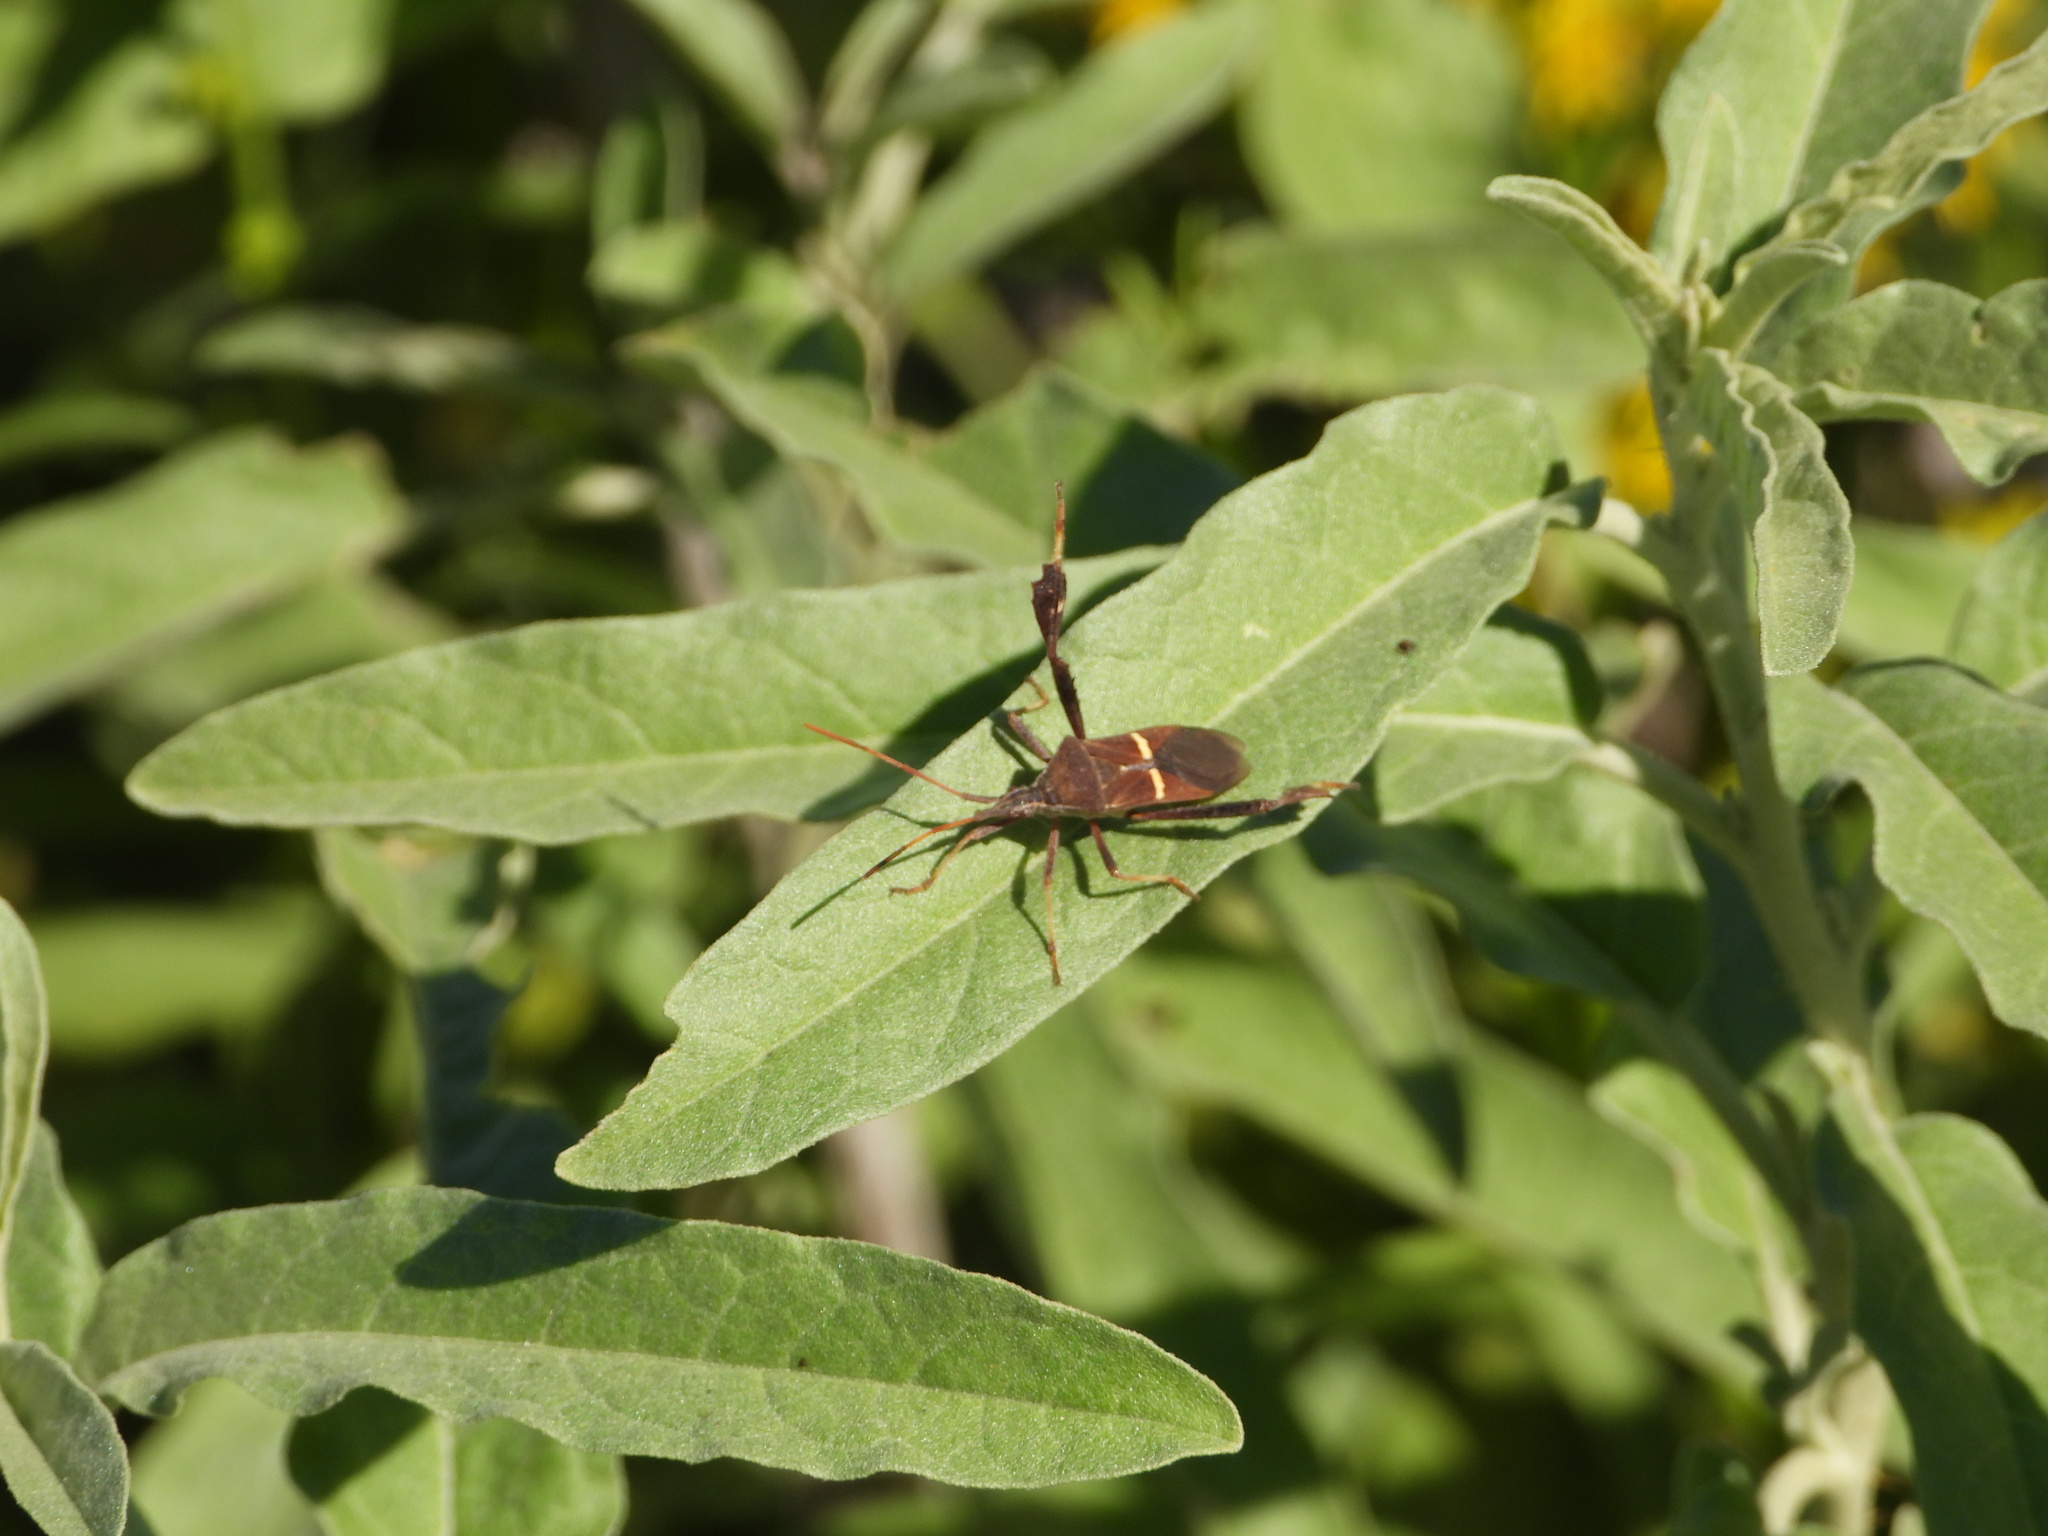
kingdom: Animalia
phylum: Arthropoda
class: Insecta
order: Hemiptera
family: Coreidae
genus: Leptoglossus
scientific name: Leptoglossus phyllopus
